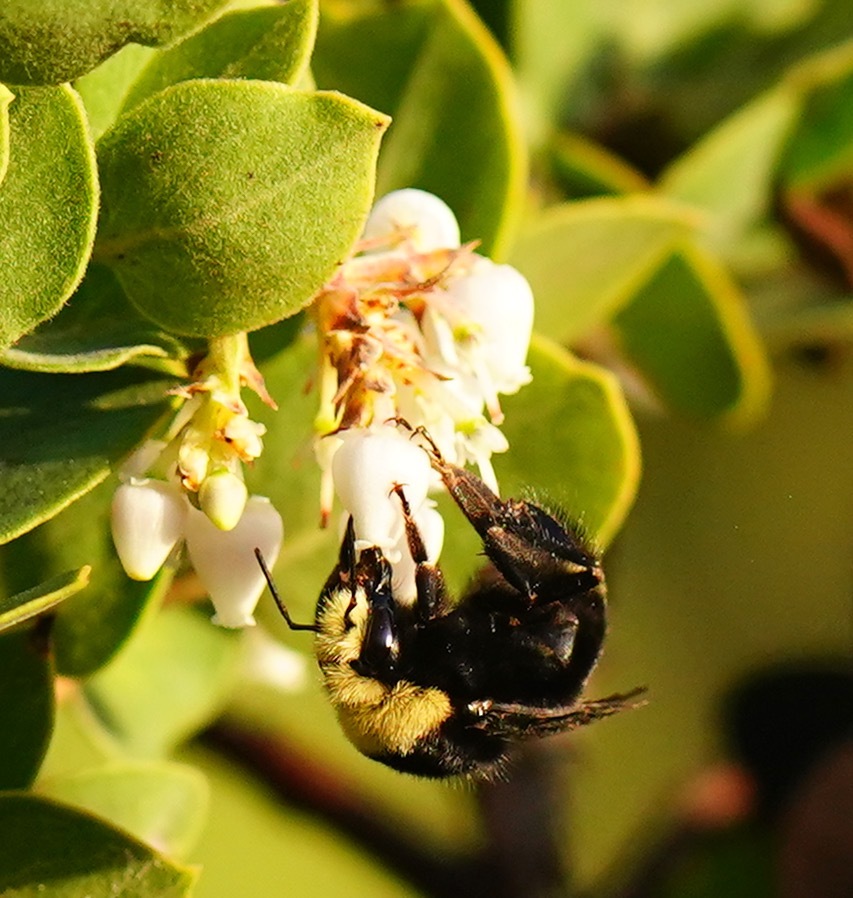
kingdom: Animalia
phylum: Arthropoda
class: Insecta
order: Hymenoptera
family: Apidae
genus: Bombus
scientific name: Bombus vosnesenskii
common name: Vosnesensky bumble bee
